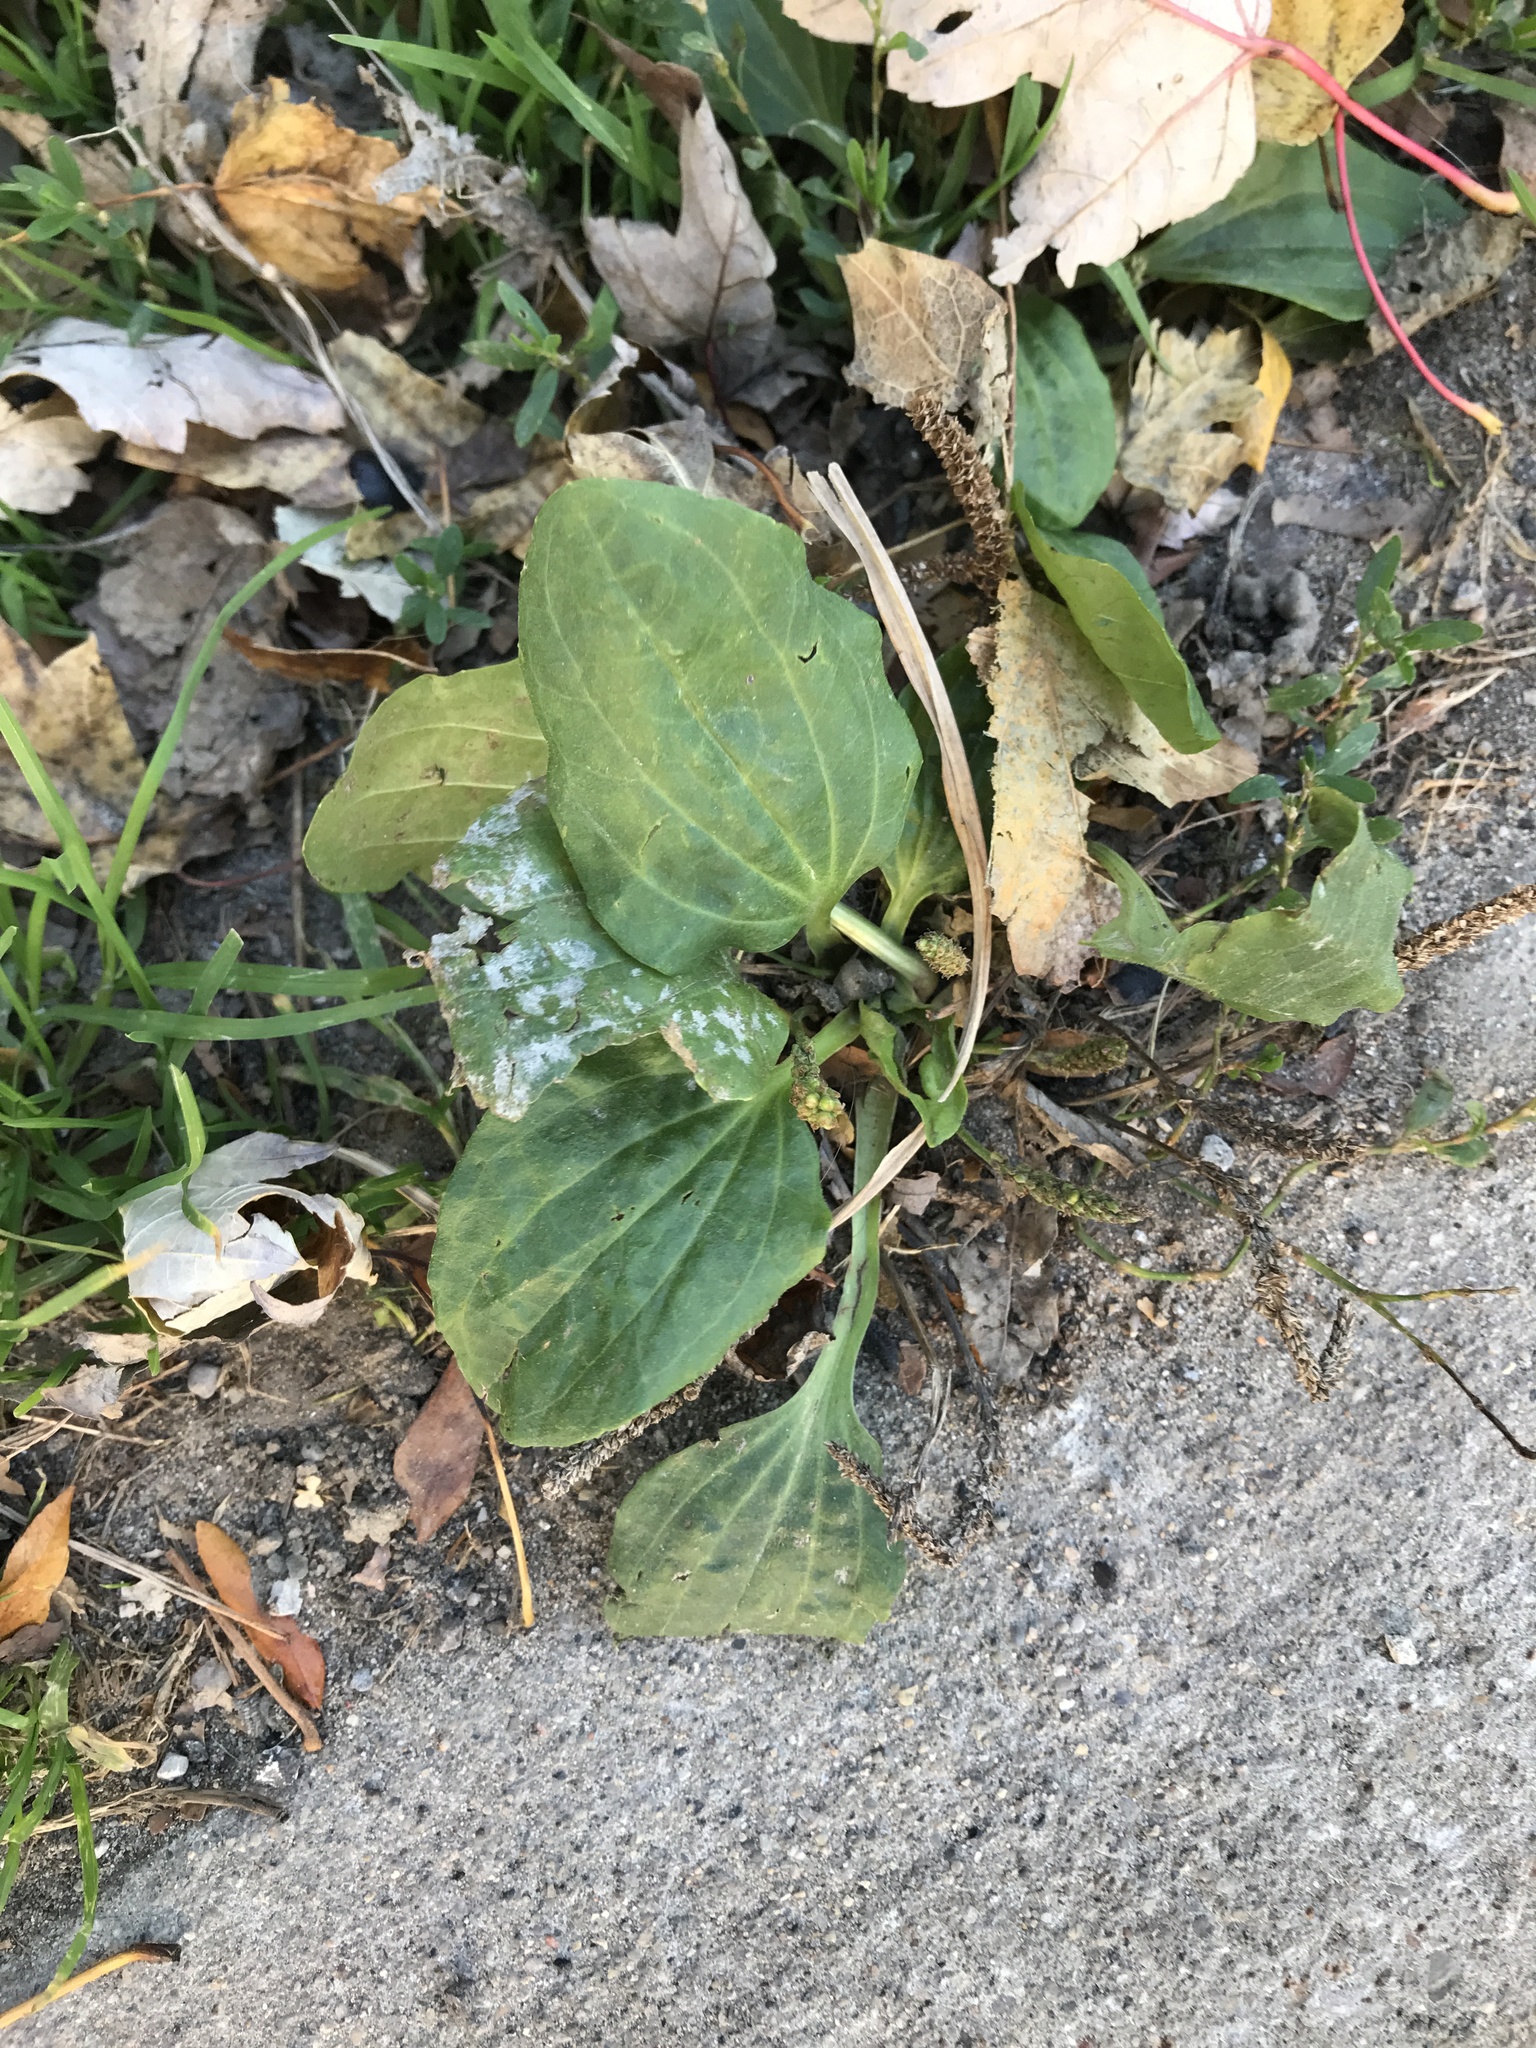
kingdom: Plantae
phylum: Tracheophyta
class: Magnoliopsida
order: Lamiales
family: Plantaginaceae
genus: Plantago
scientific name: Plantago major
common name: Common plantain
